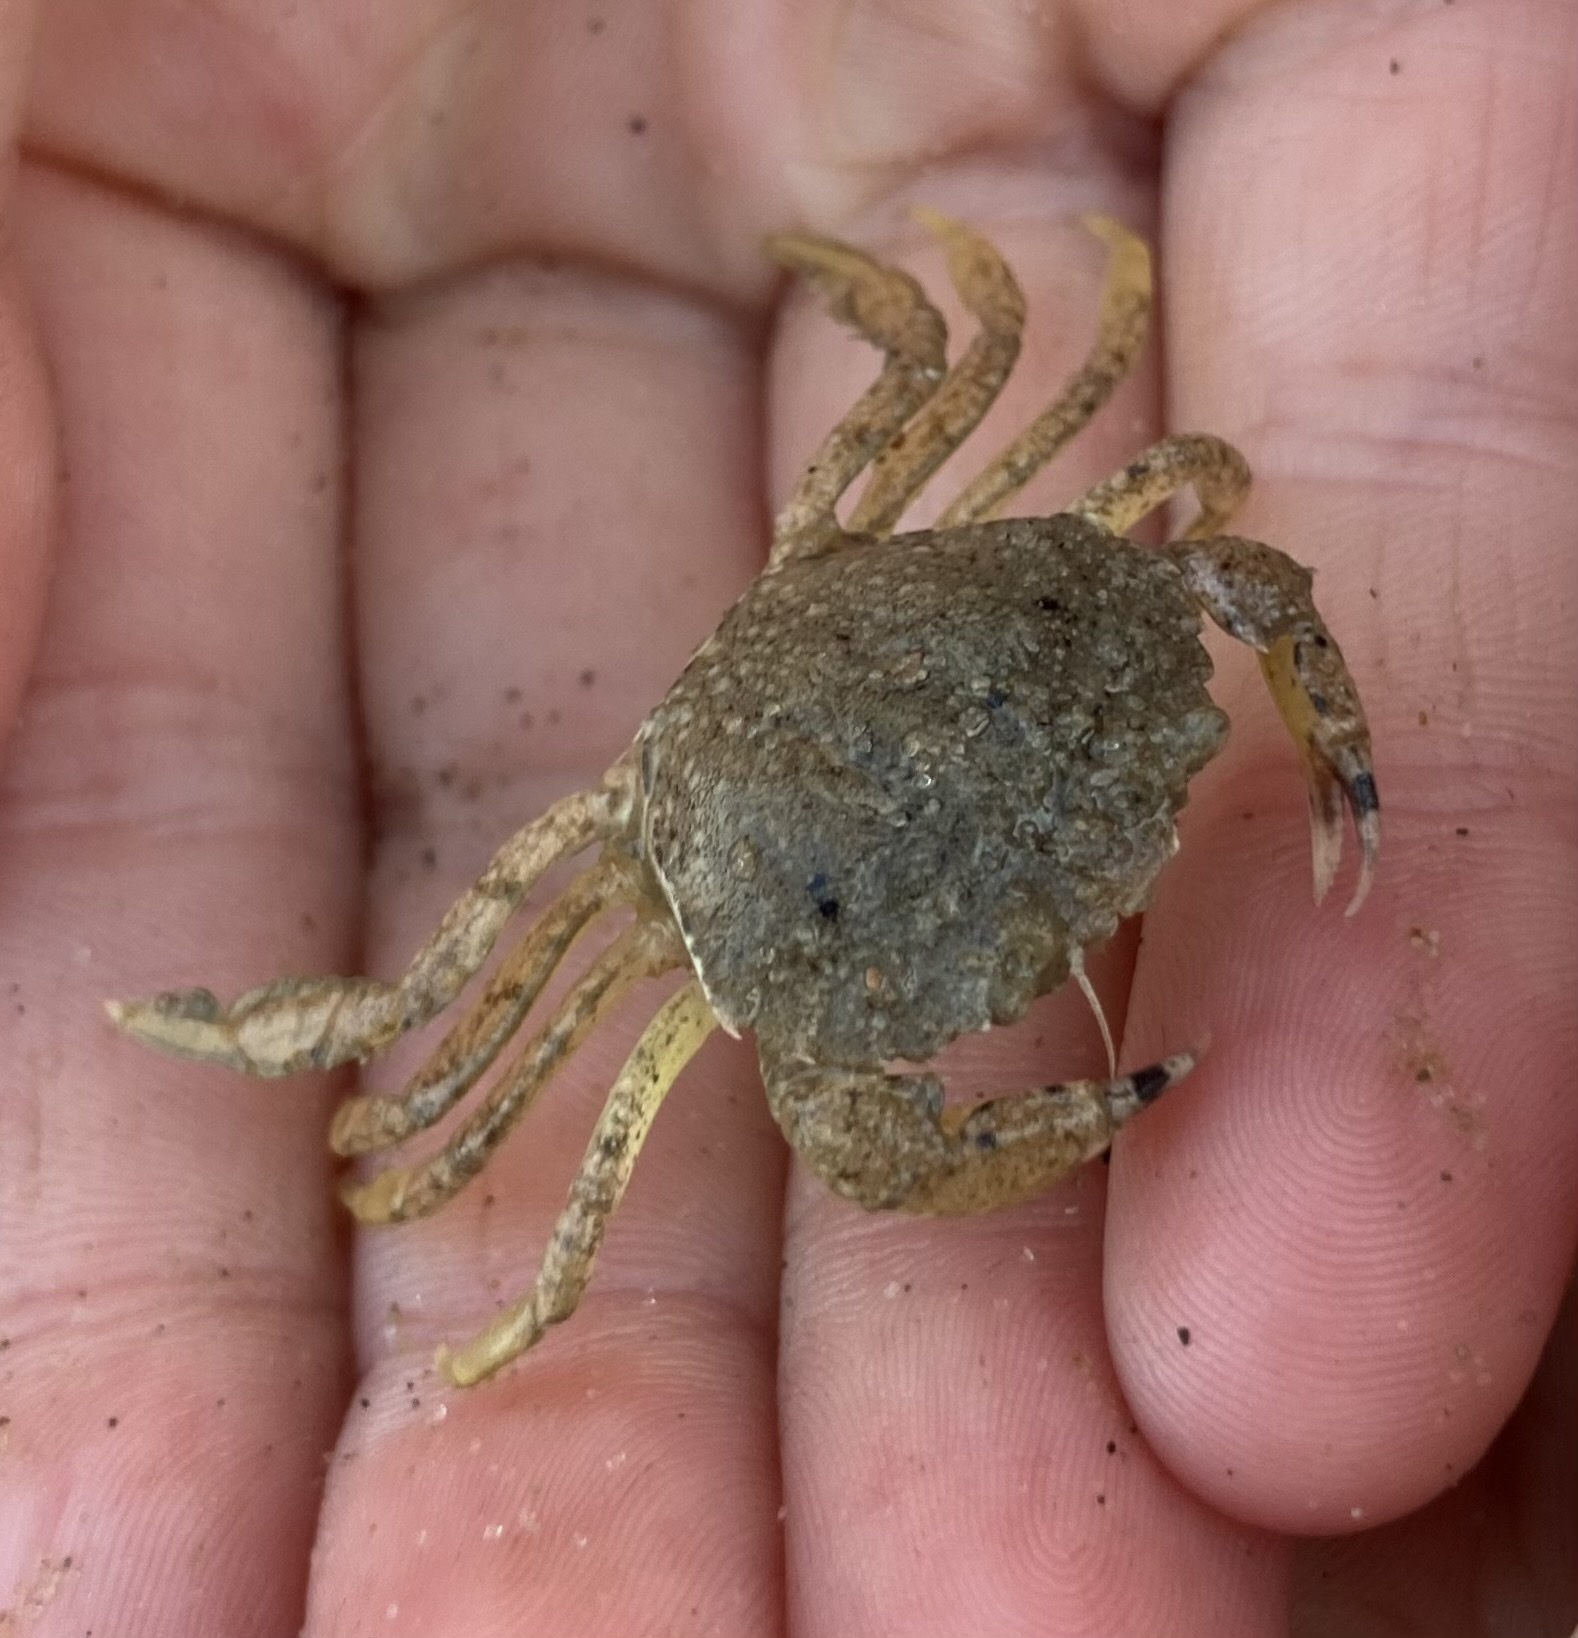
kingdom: Animalia
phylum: Arthropoda
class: Malacostraca
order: Decapoda
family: Carcinidae
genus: Carcinus
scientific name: Carcinus maenas
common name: European green crab
